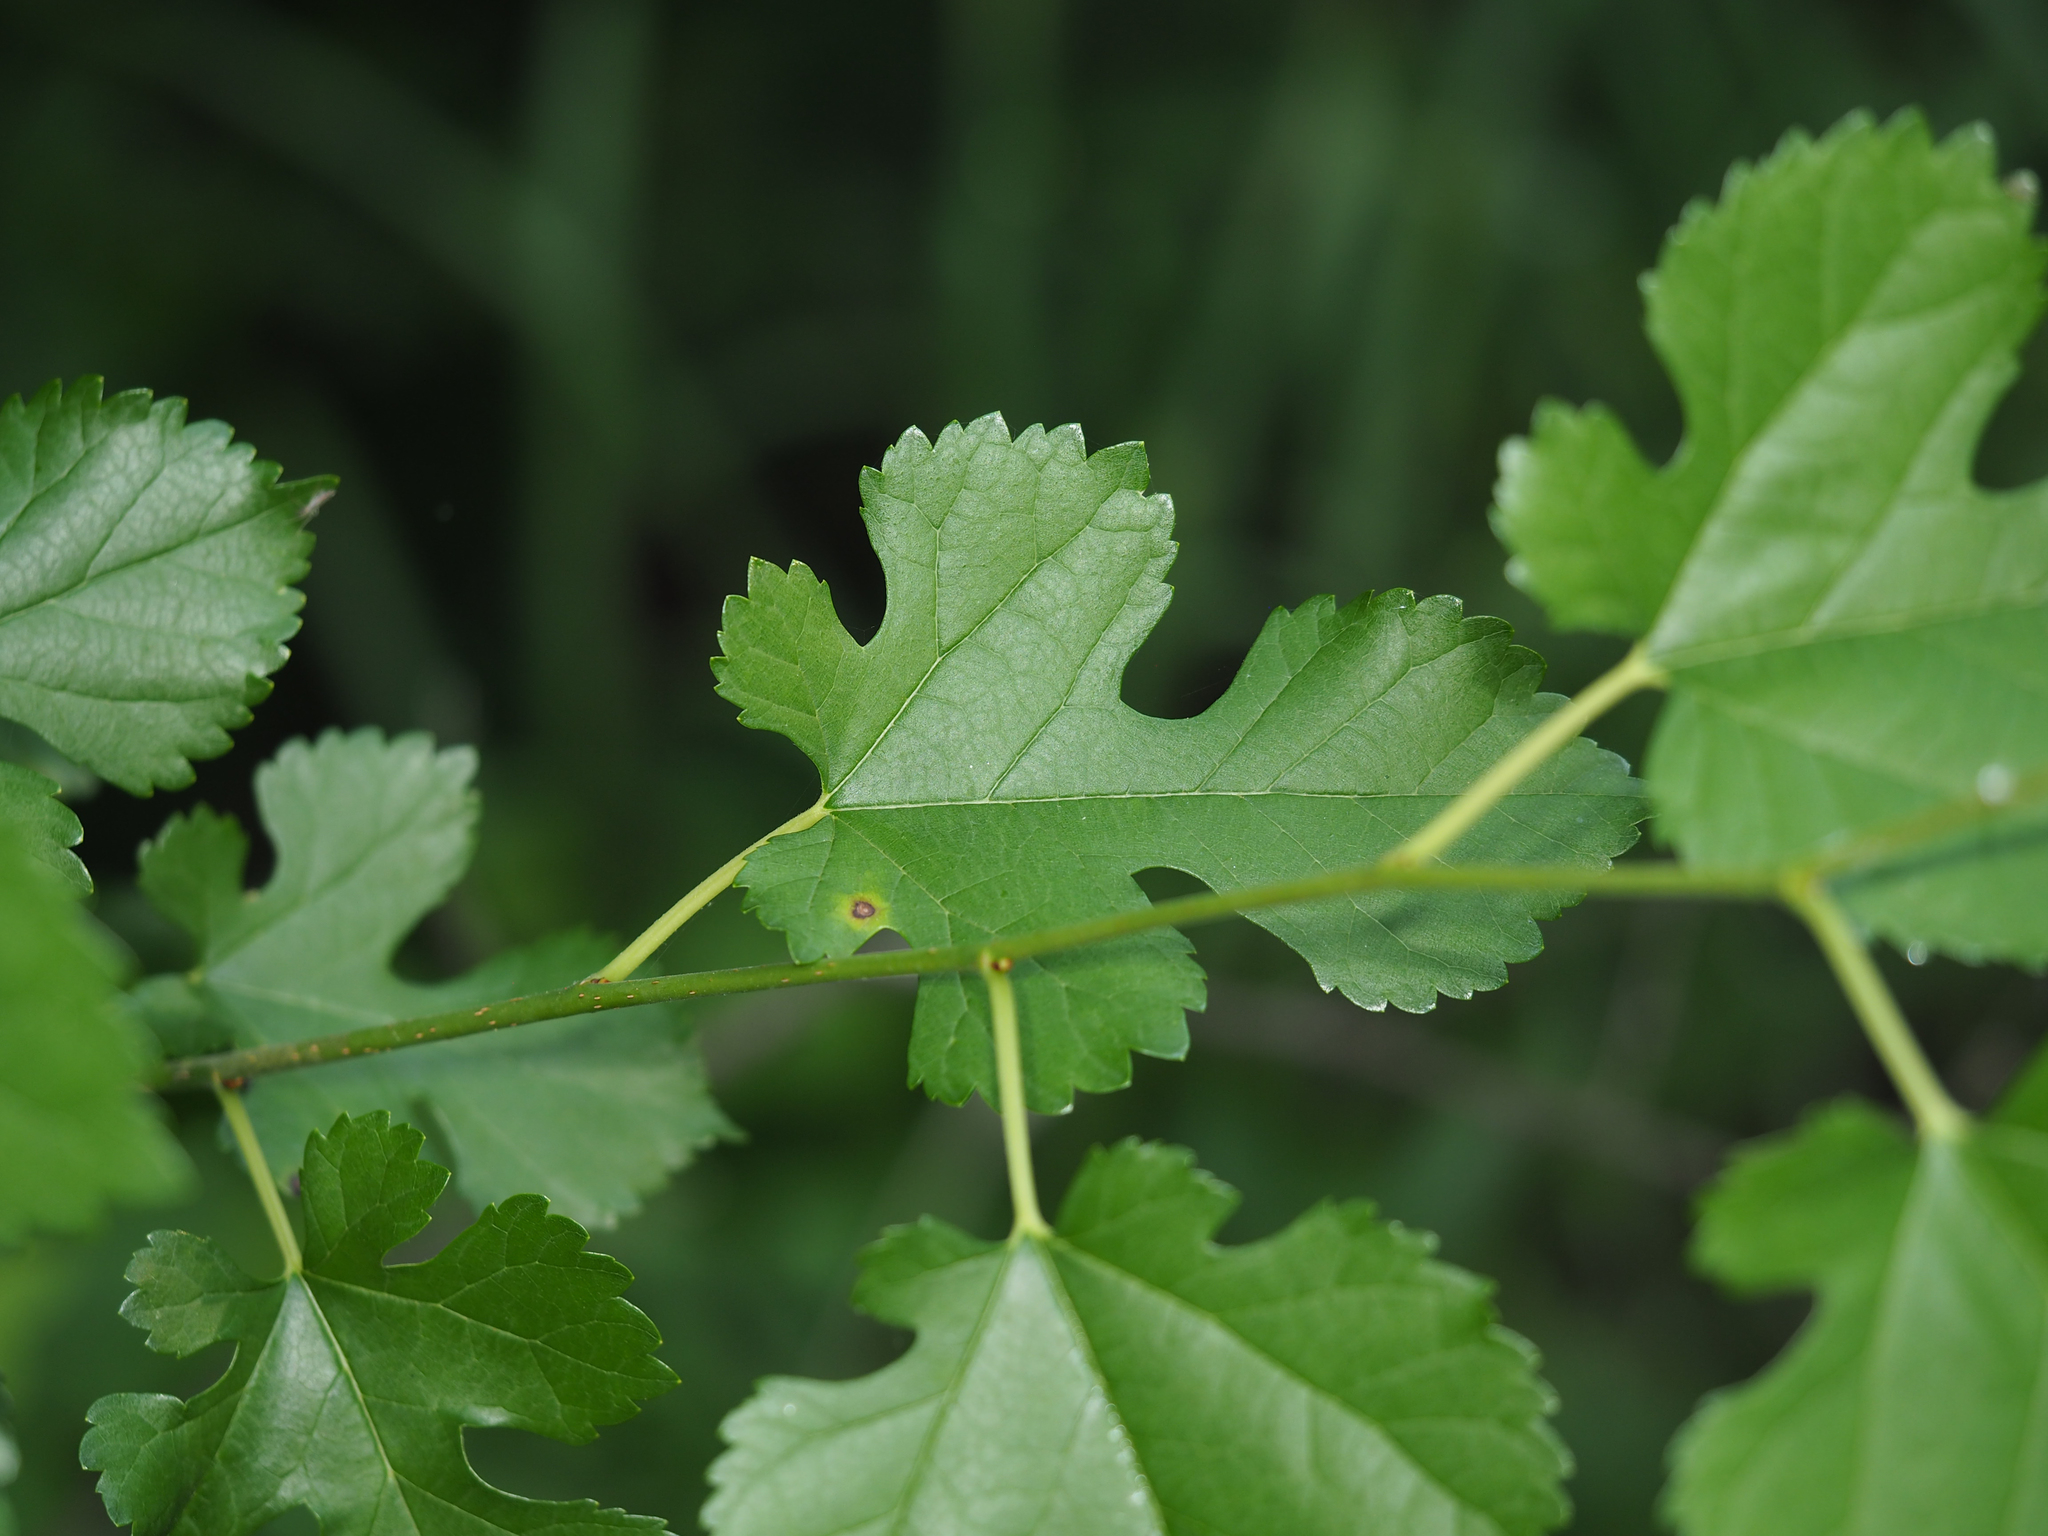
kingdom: Plantae
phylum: Tracheophyta
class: Magnoliopsida
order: Rosales
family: Moraceae
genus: Morus
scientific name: Morus alba
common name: White mulberry
